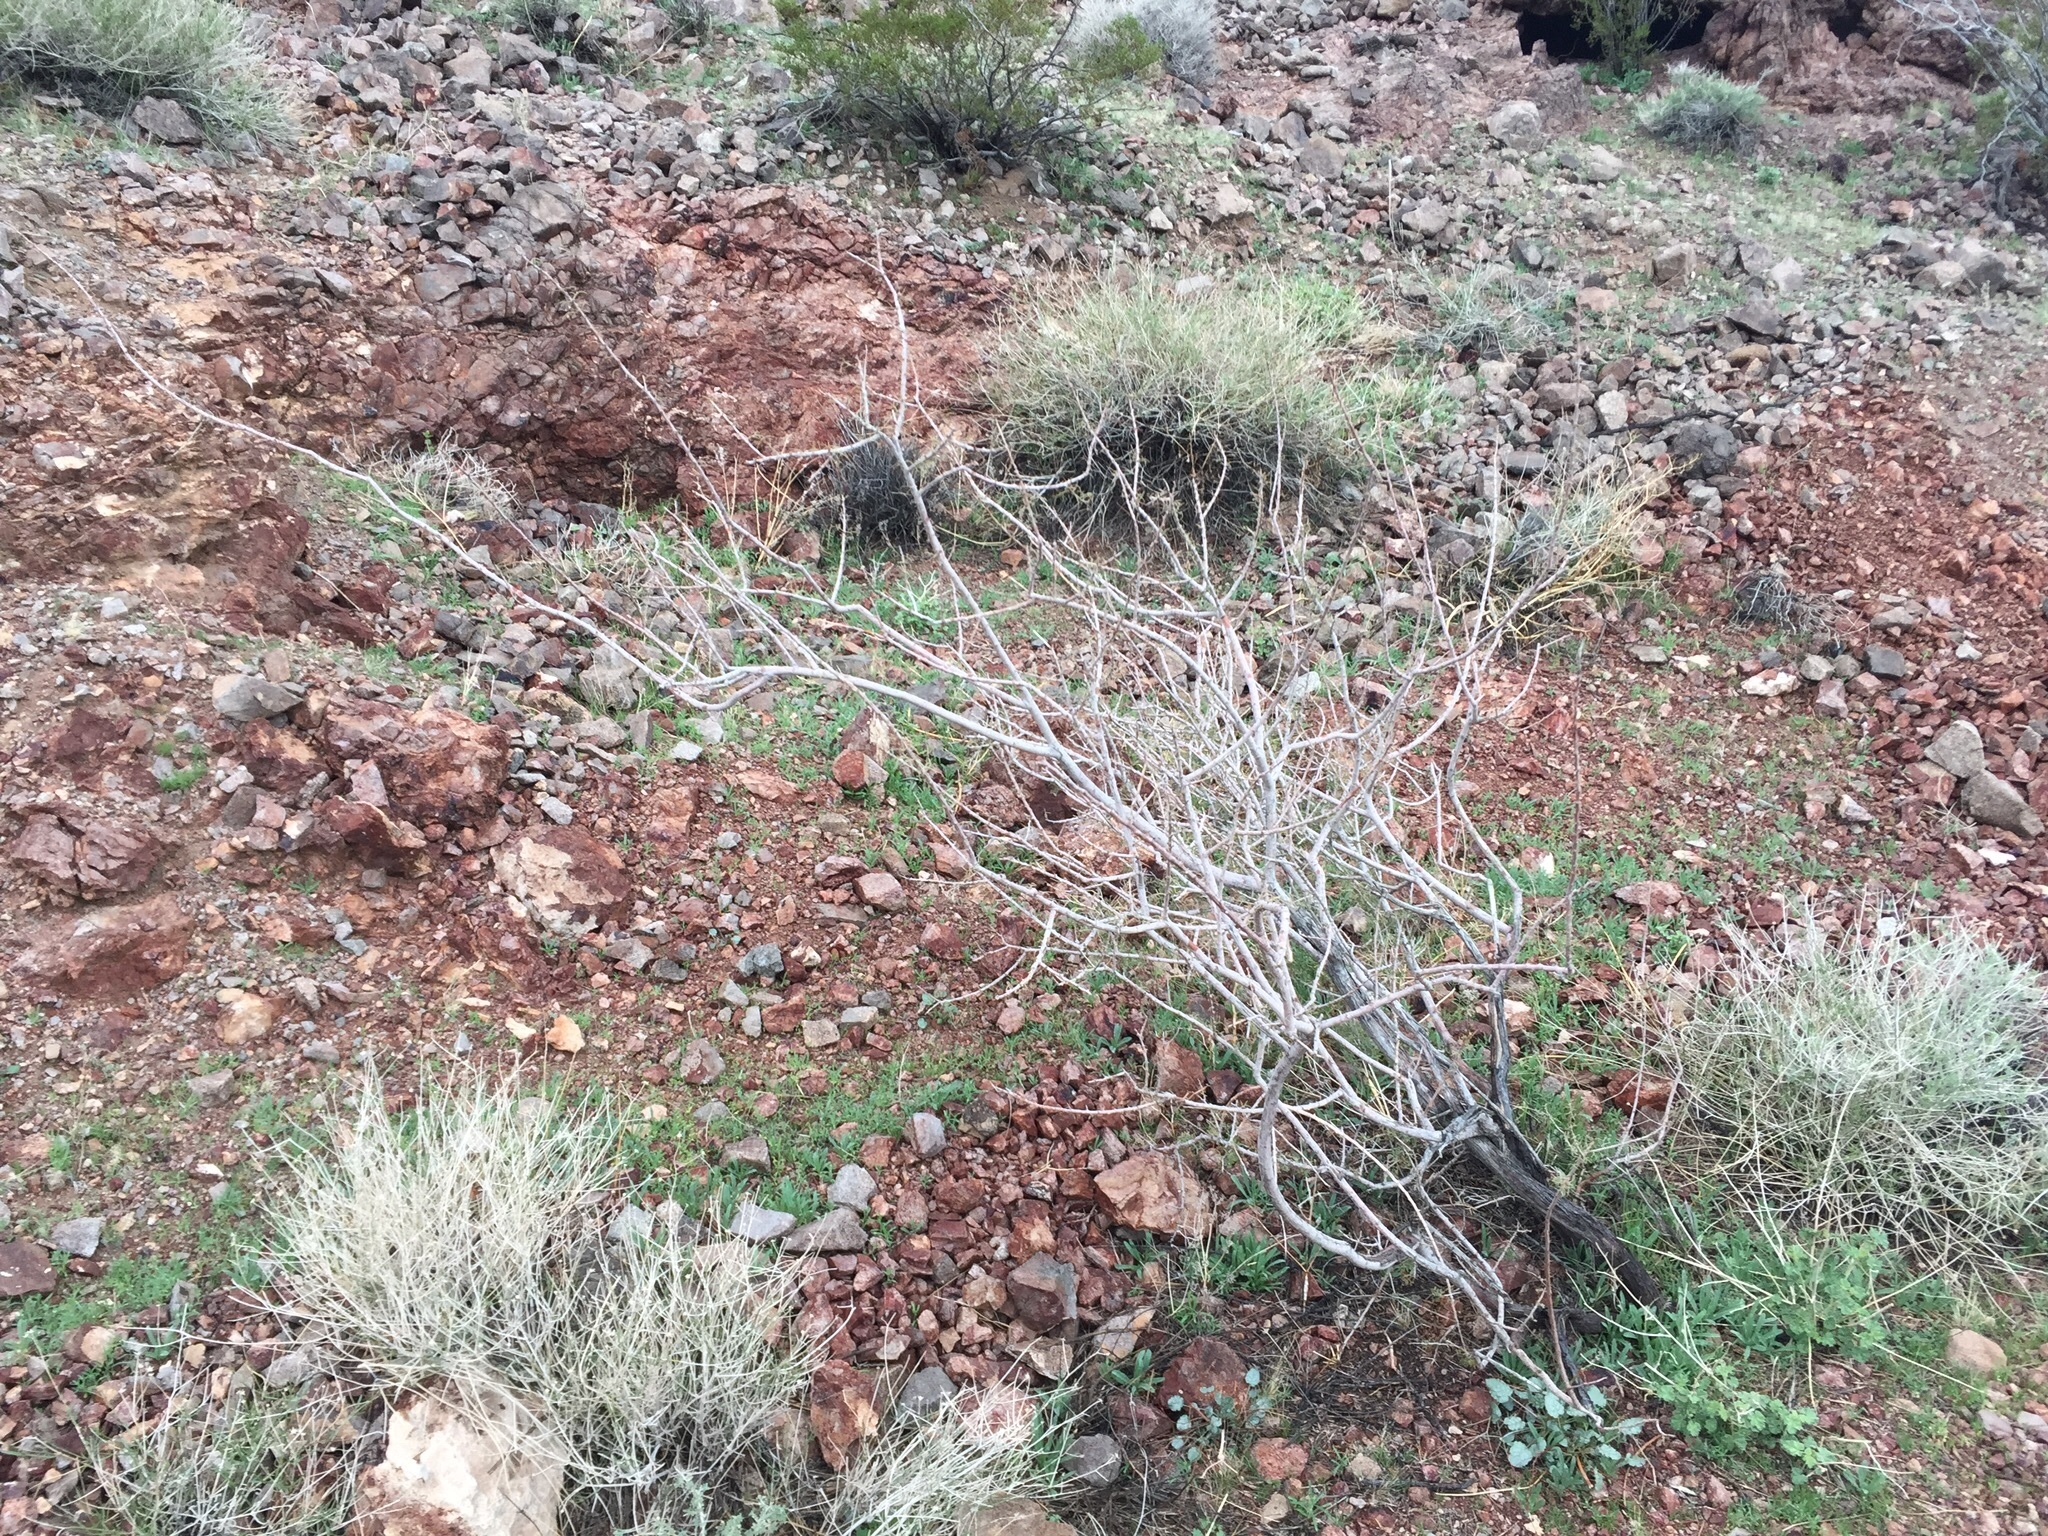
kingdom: Plantae
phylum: Tracheophyta
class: Magnoliopsida
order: Fabales
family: Fabaceae
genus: Senegalia
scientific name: Senegalia greggii
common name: Texas-mimosa
